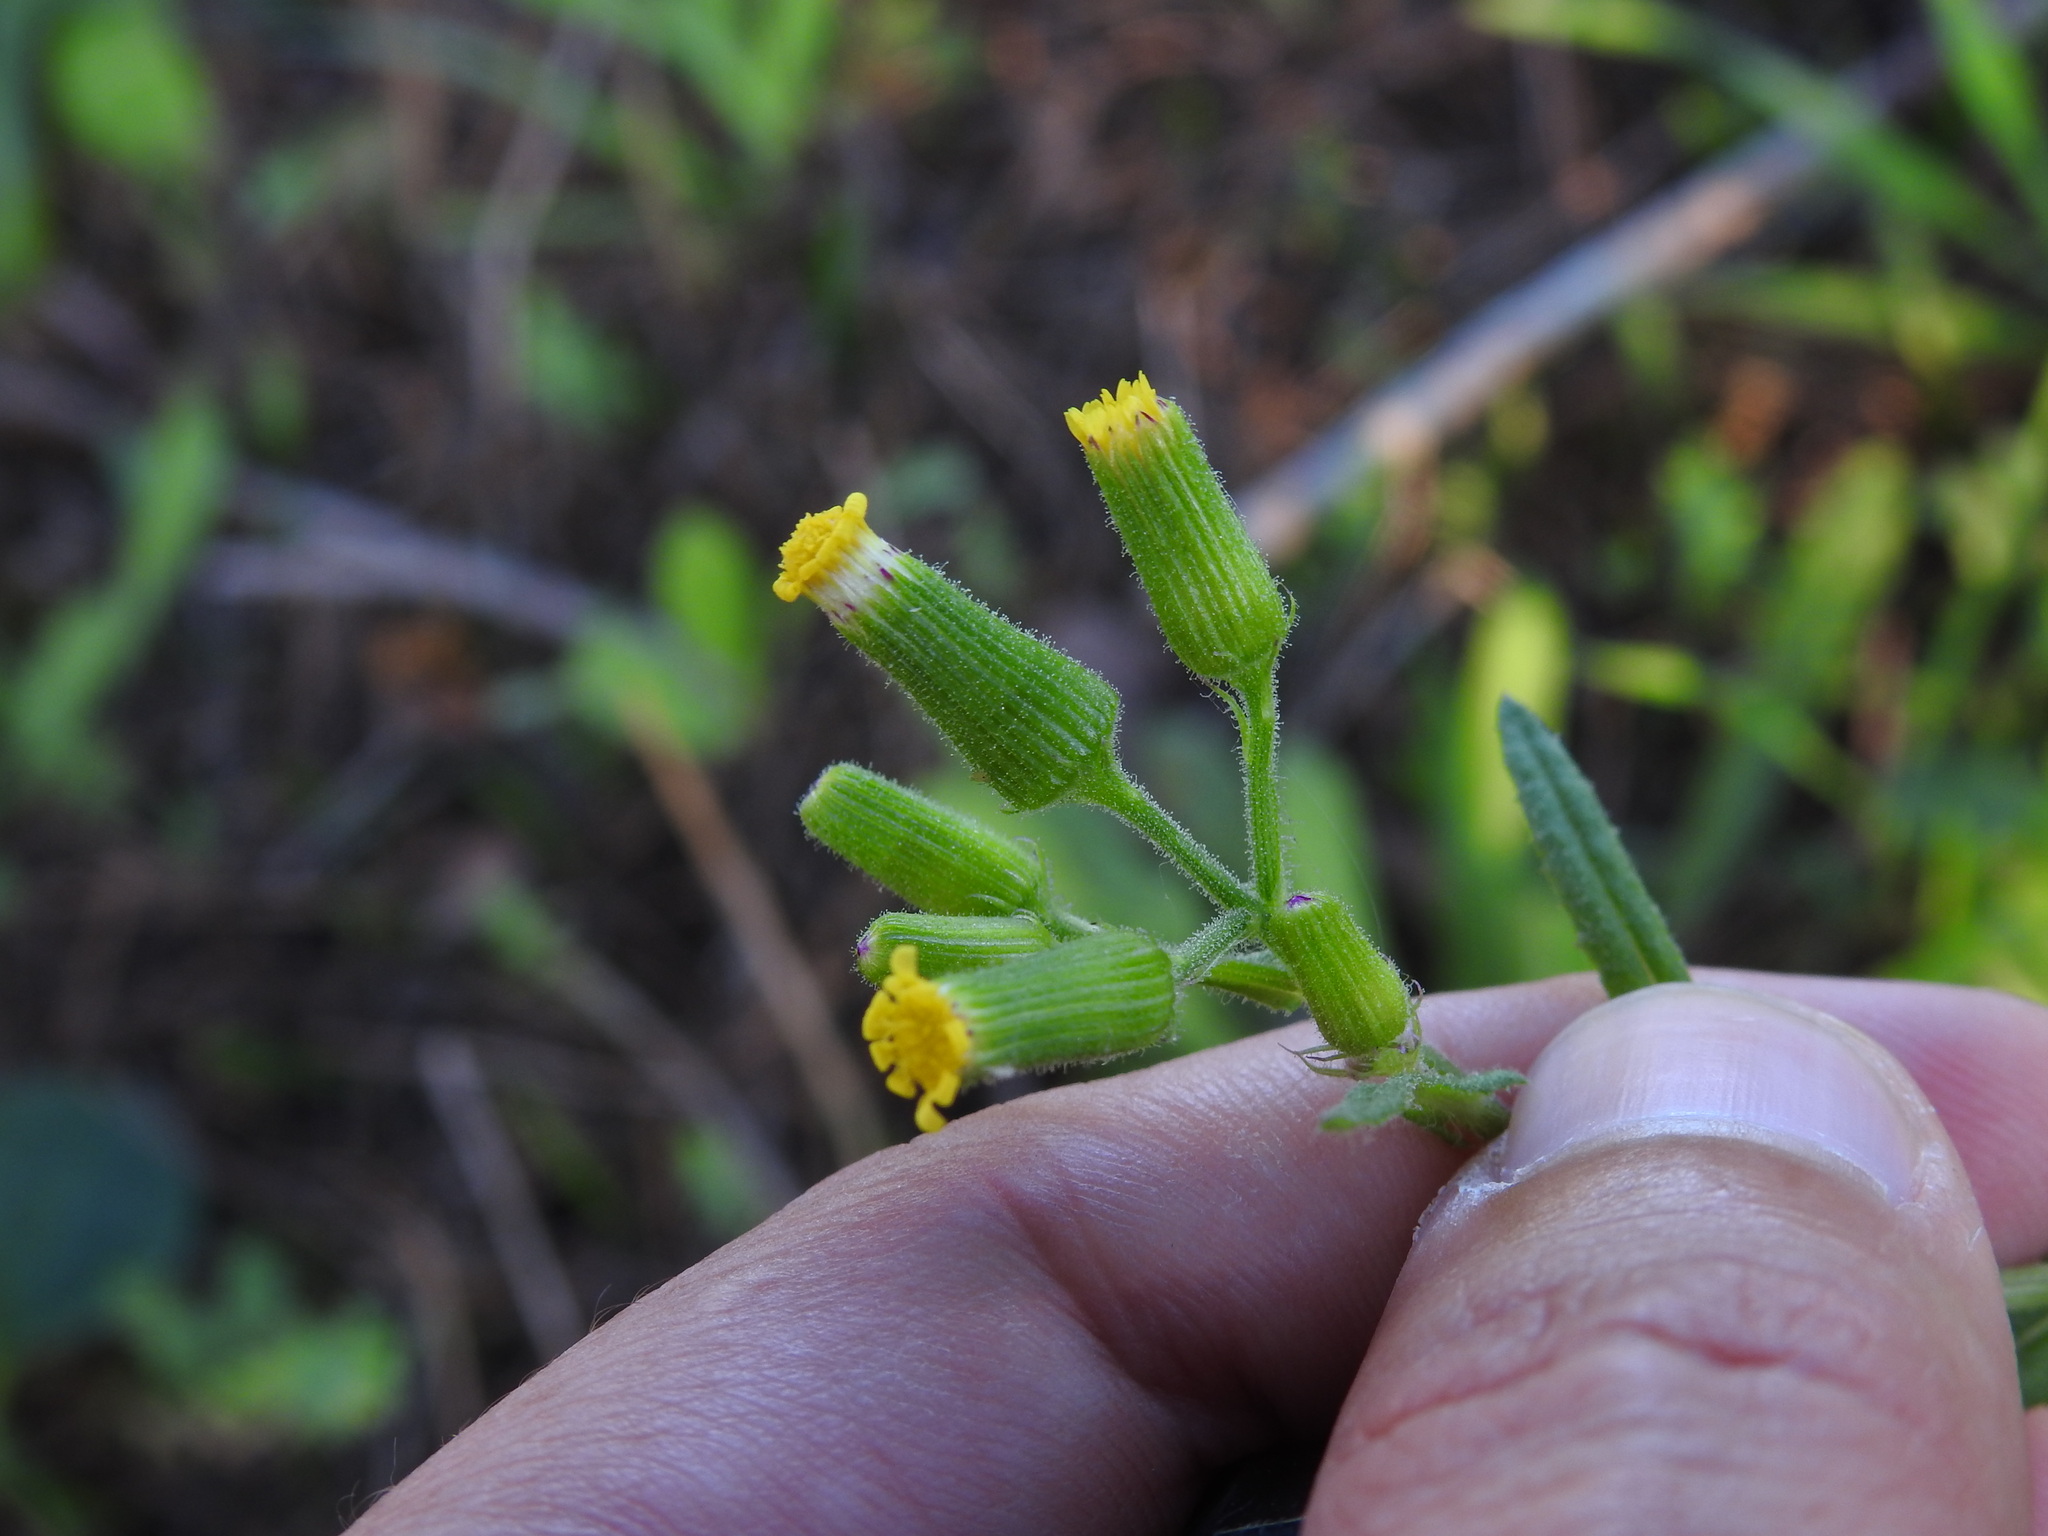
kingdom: Plantae
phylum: Tracheophyta
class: Magnoliopsida
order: Asterales
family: Asteraceae
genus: Senecio
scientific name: Senecio lividus
